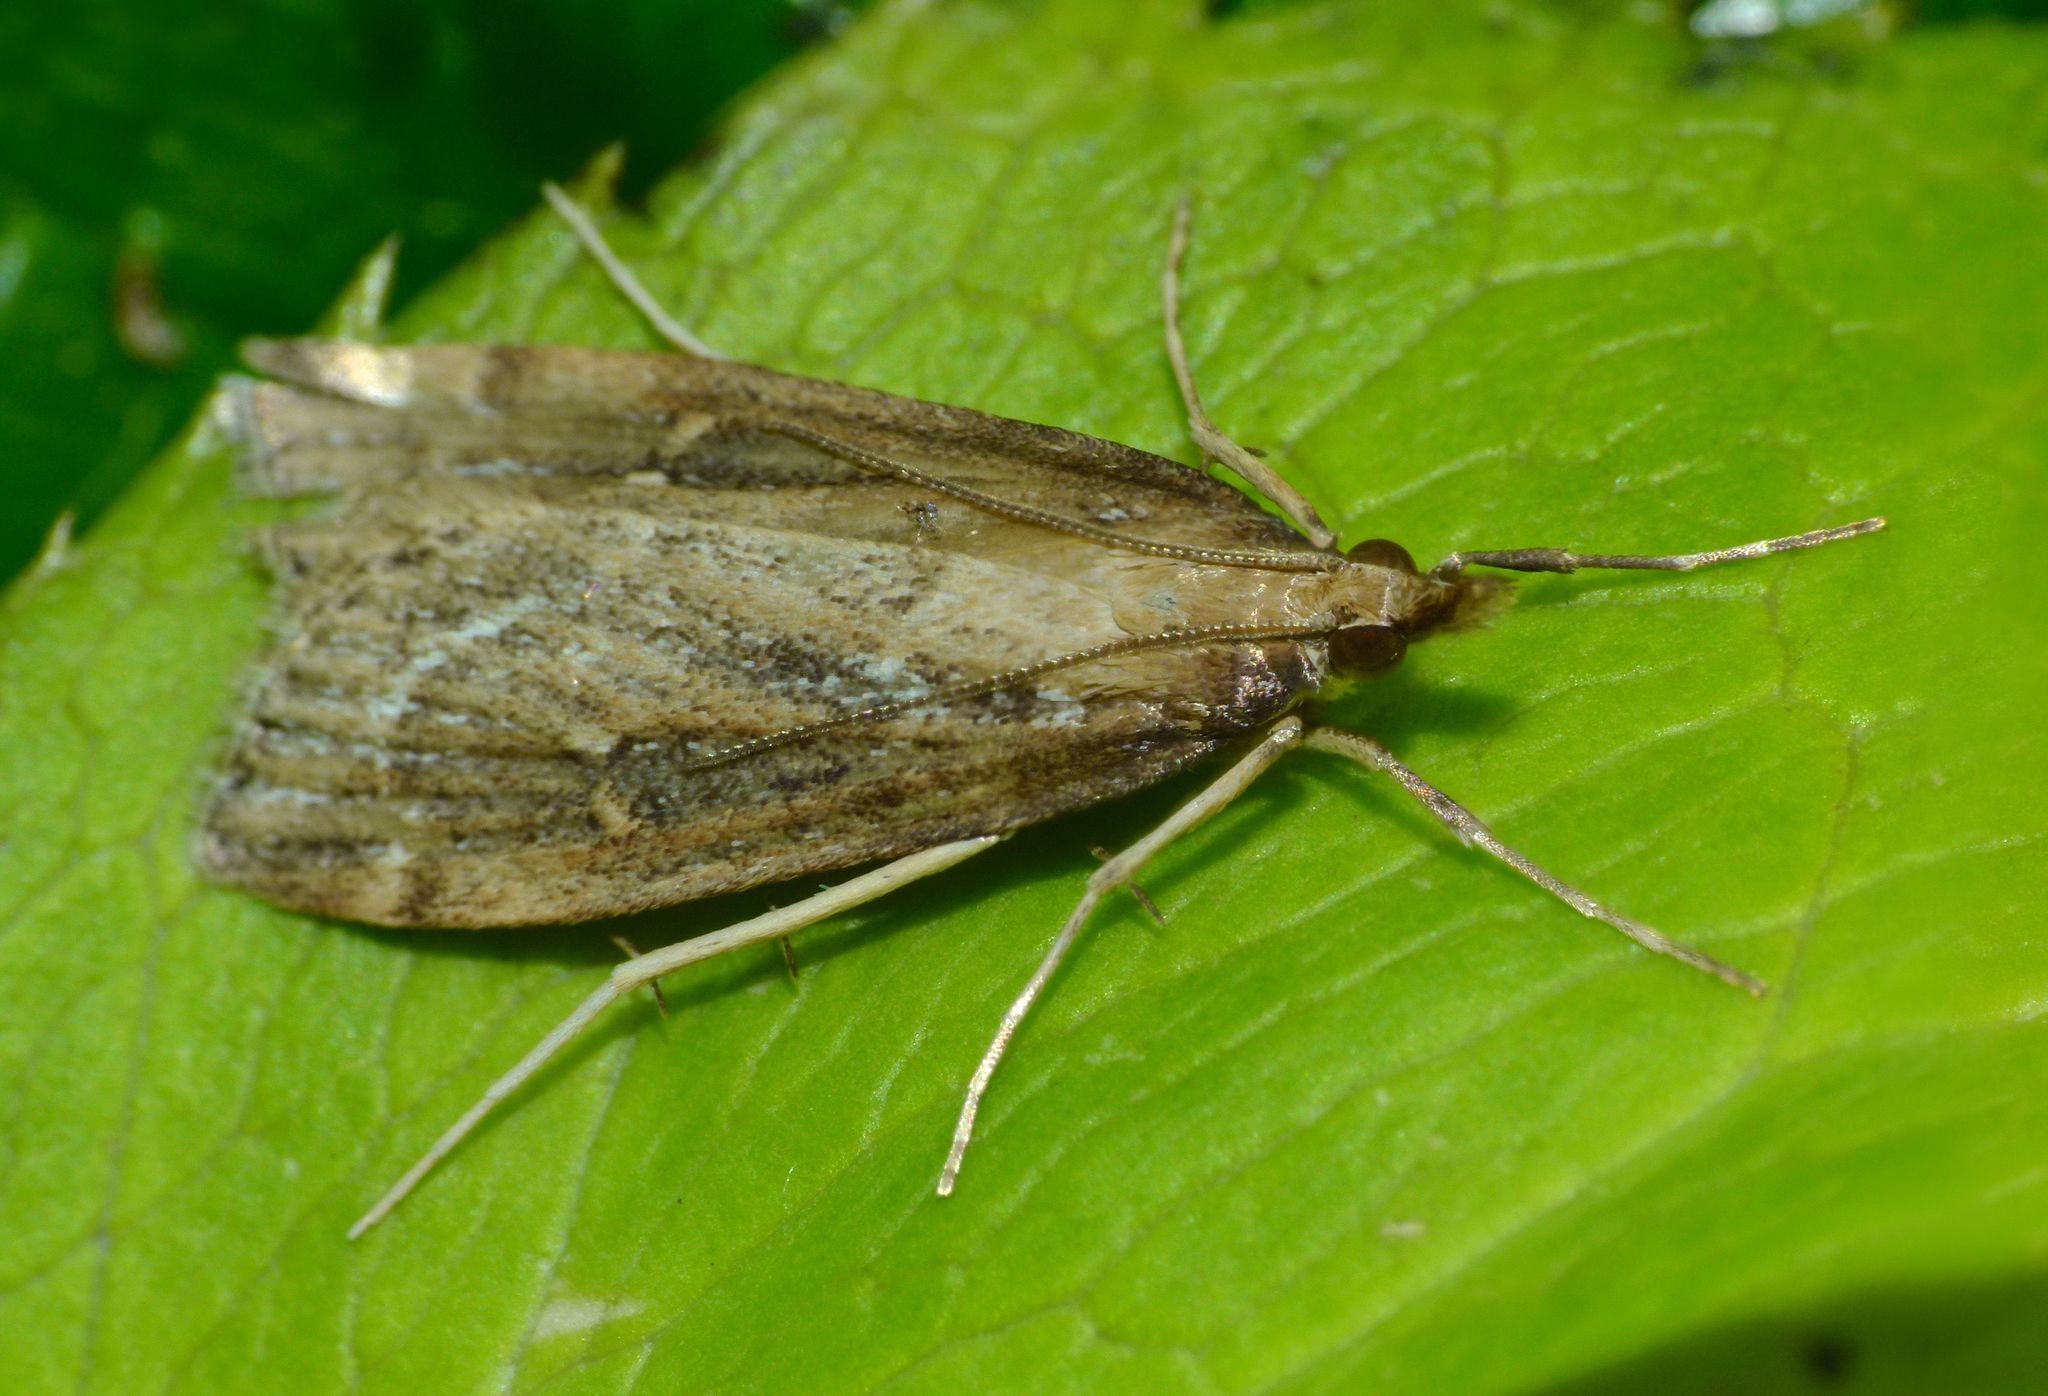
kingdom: Animalia
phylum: Arthropoda
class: Insecta
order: Lepidoptera
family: Crambidae
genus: Eudonia
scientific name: Eudonia octophora
